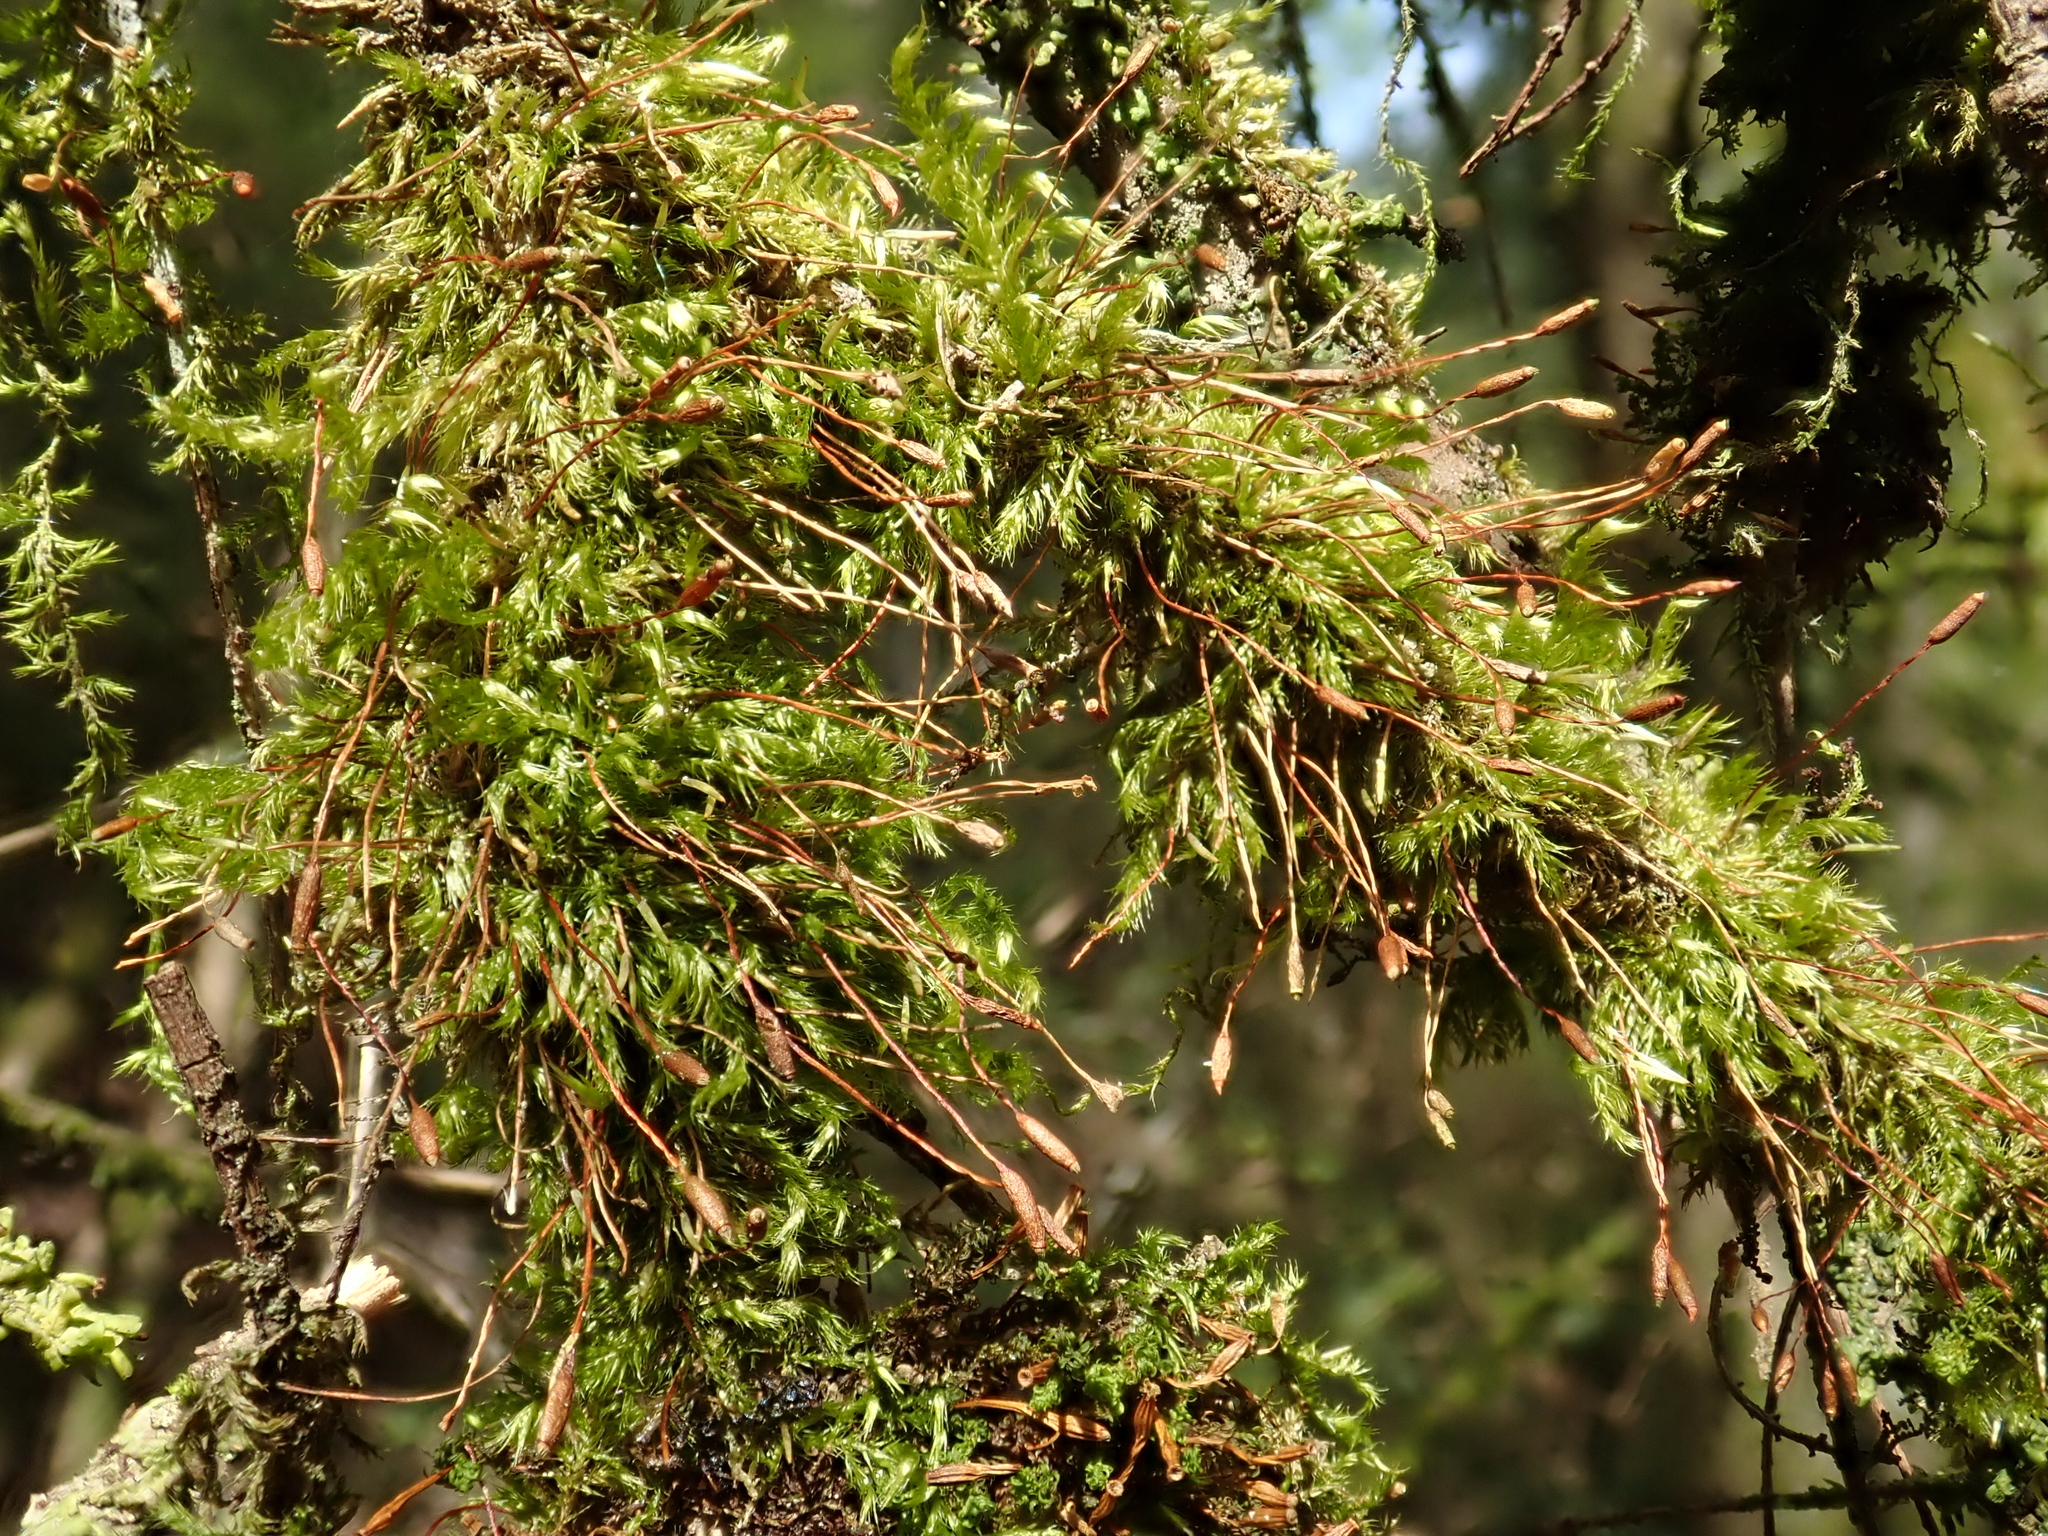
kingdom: Plantae
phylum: Bryophyta
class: Bryopsida
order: Hypnales
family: Pylaisiaceae
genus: Pylaisia
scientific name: Pylaisia polyantha
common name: Many-flowered leskea
